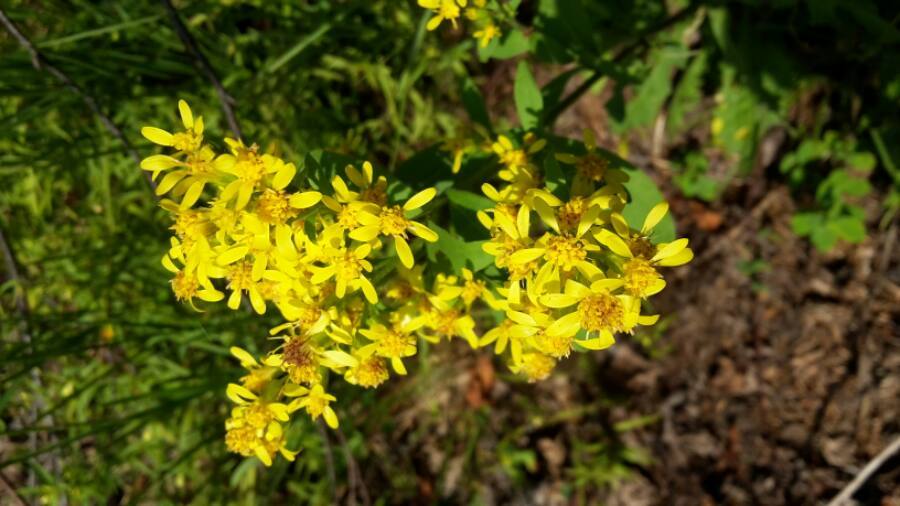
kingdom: Plantae
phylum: Tracheophyta
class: Magnoliopsida
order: Asterales
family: Asteraceae
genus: Solidago
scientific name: Solidago virgaurea
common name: Goldenrod
